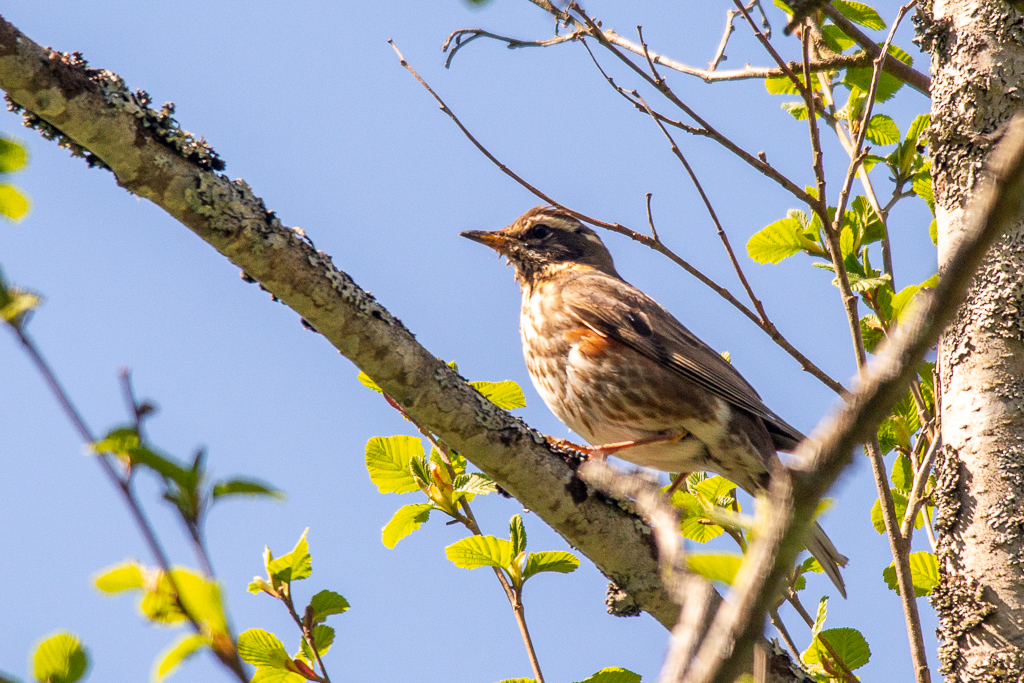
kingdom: Animalia
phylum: Chordata
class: Aves
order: Passeriformes
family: Turdidae
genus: Turdus
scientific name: Turdus iliacus
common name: Redwing
